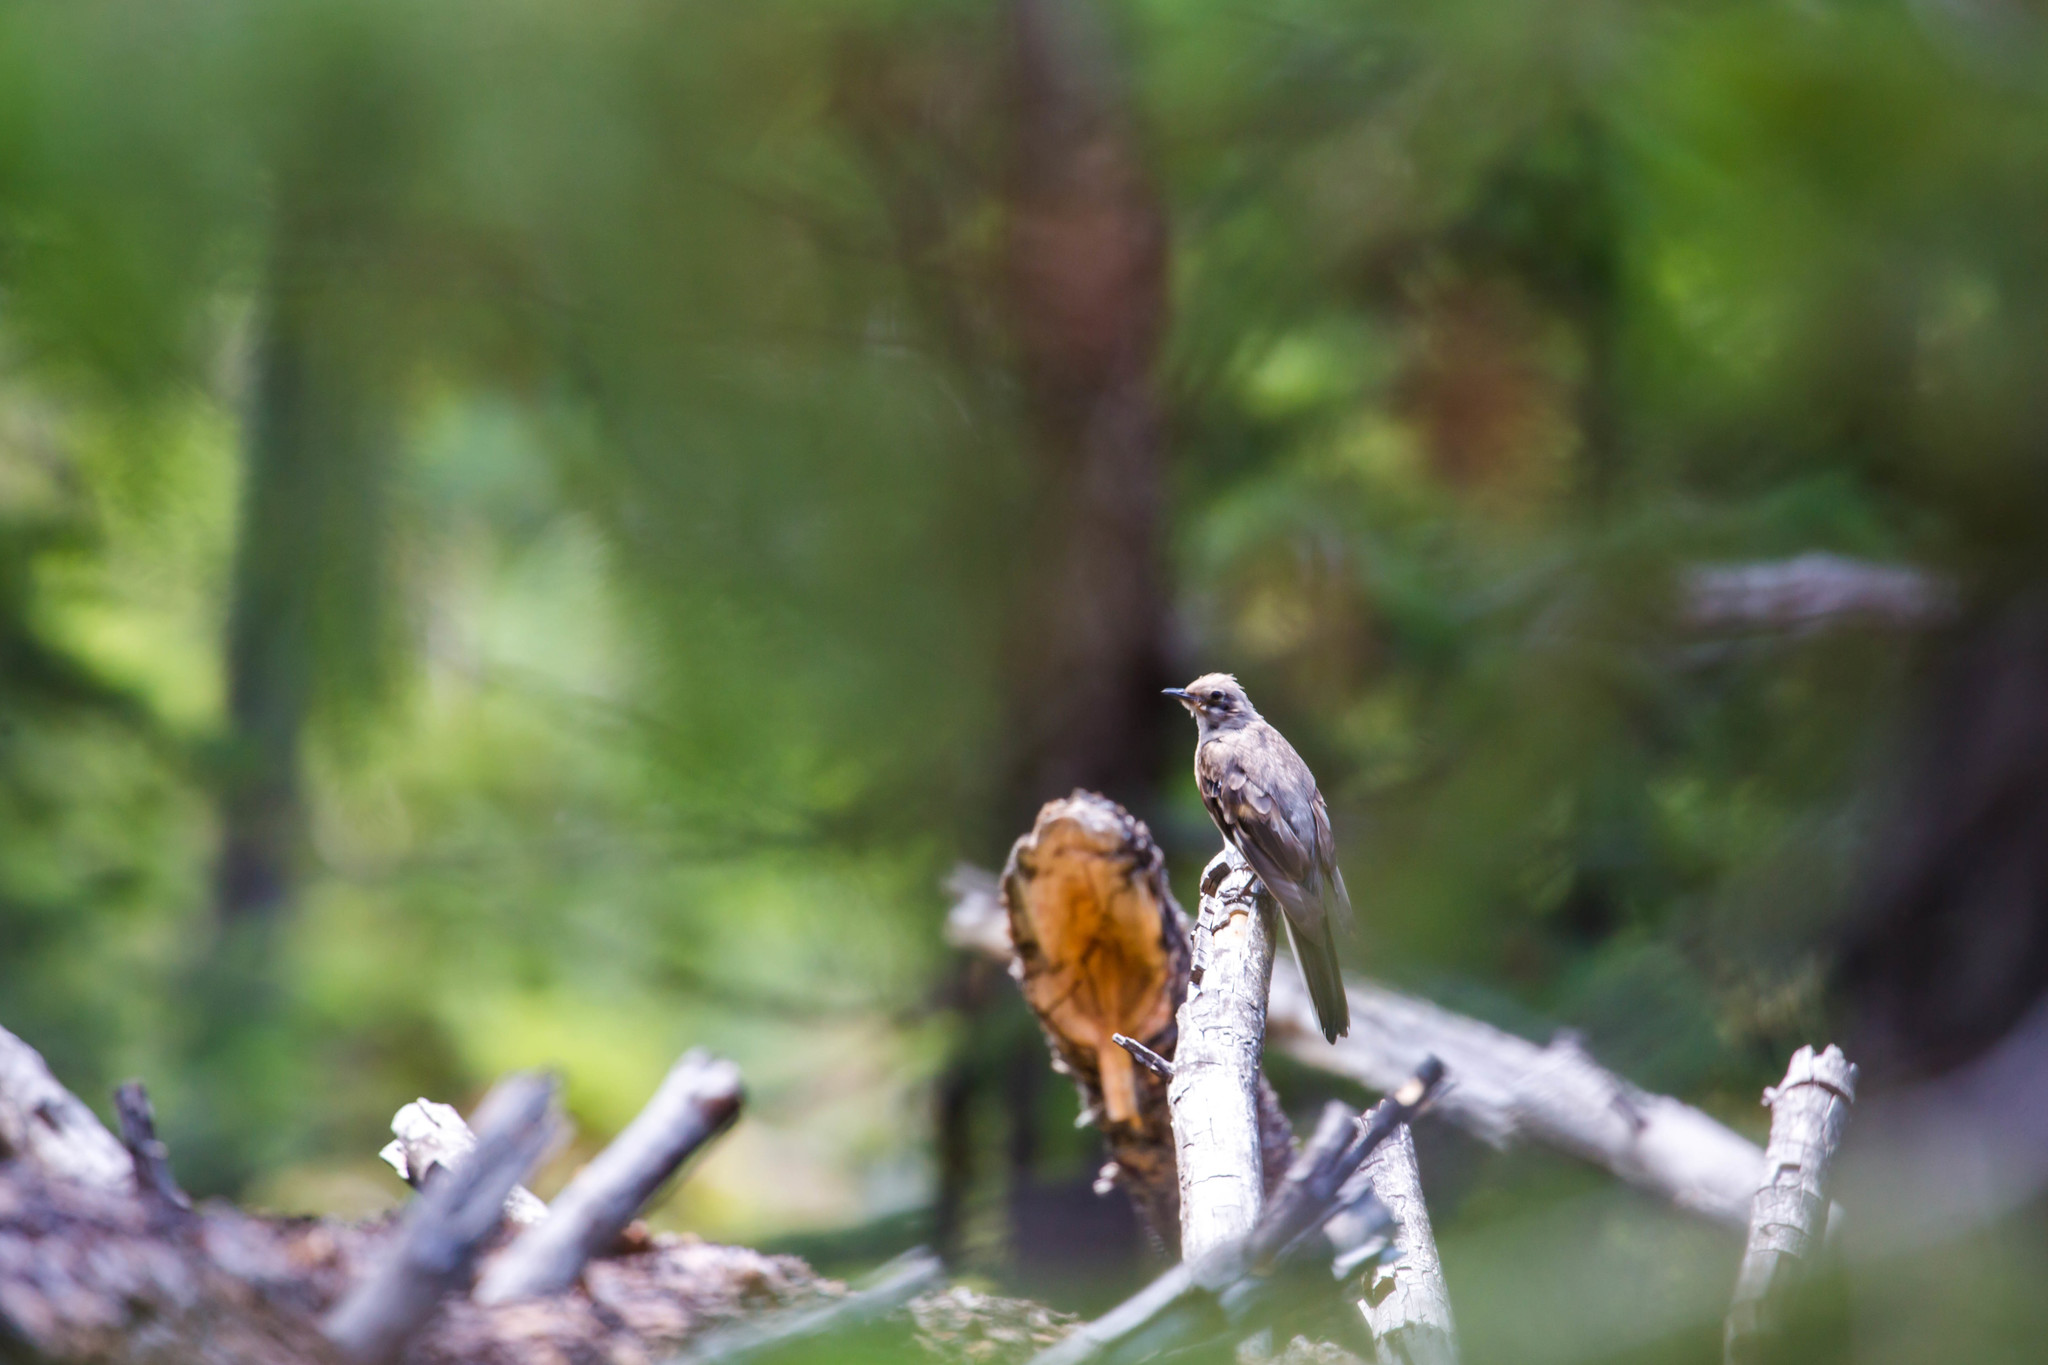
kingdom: Animalia
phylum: Chordata
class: Aves
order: Passeriformes
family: Turdidae
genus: Myadestes
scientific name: Myadestes townsendi
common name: Townsend's solitaire
